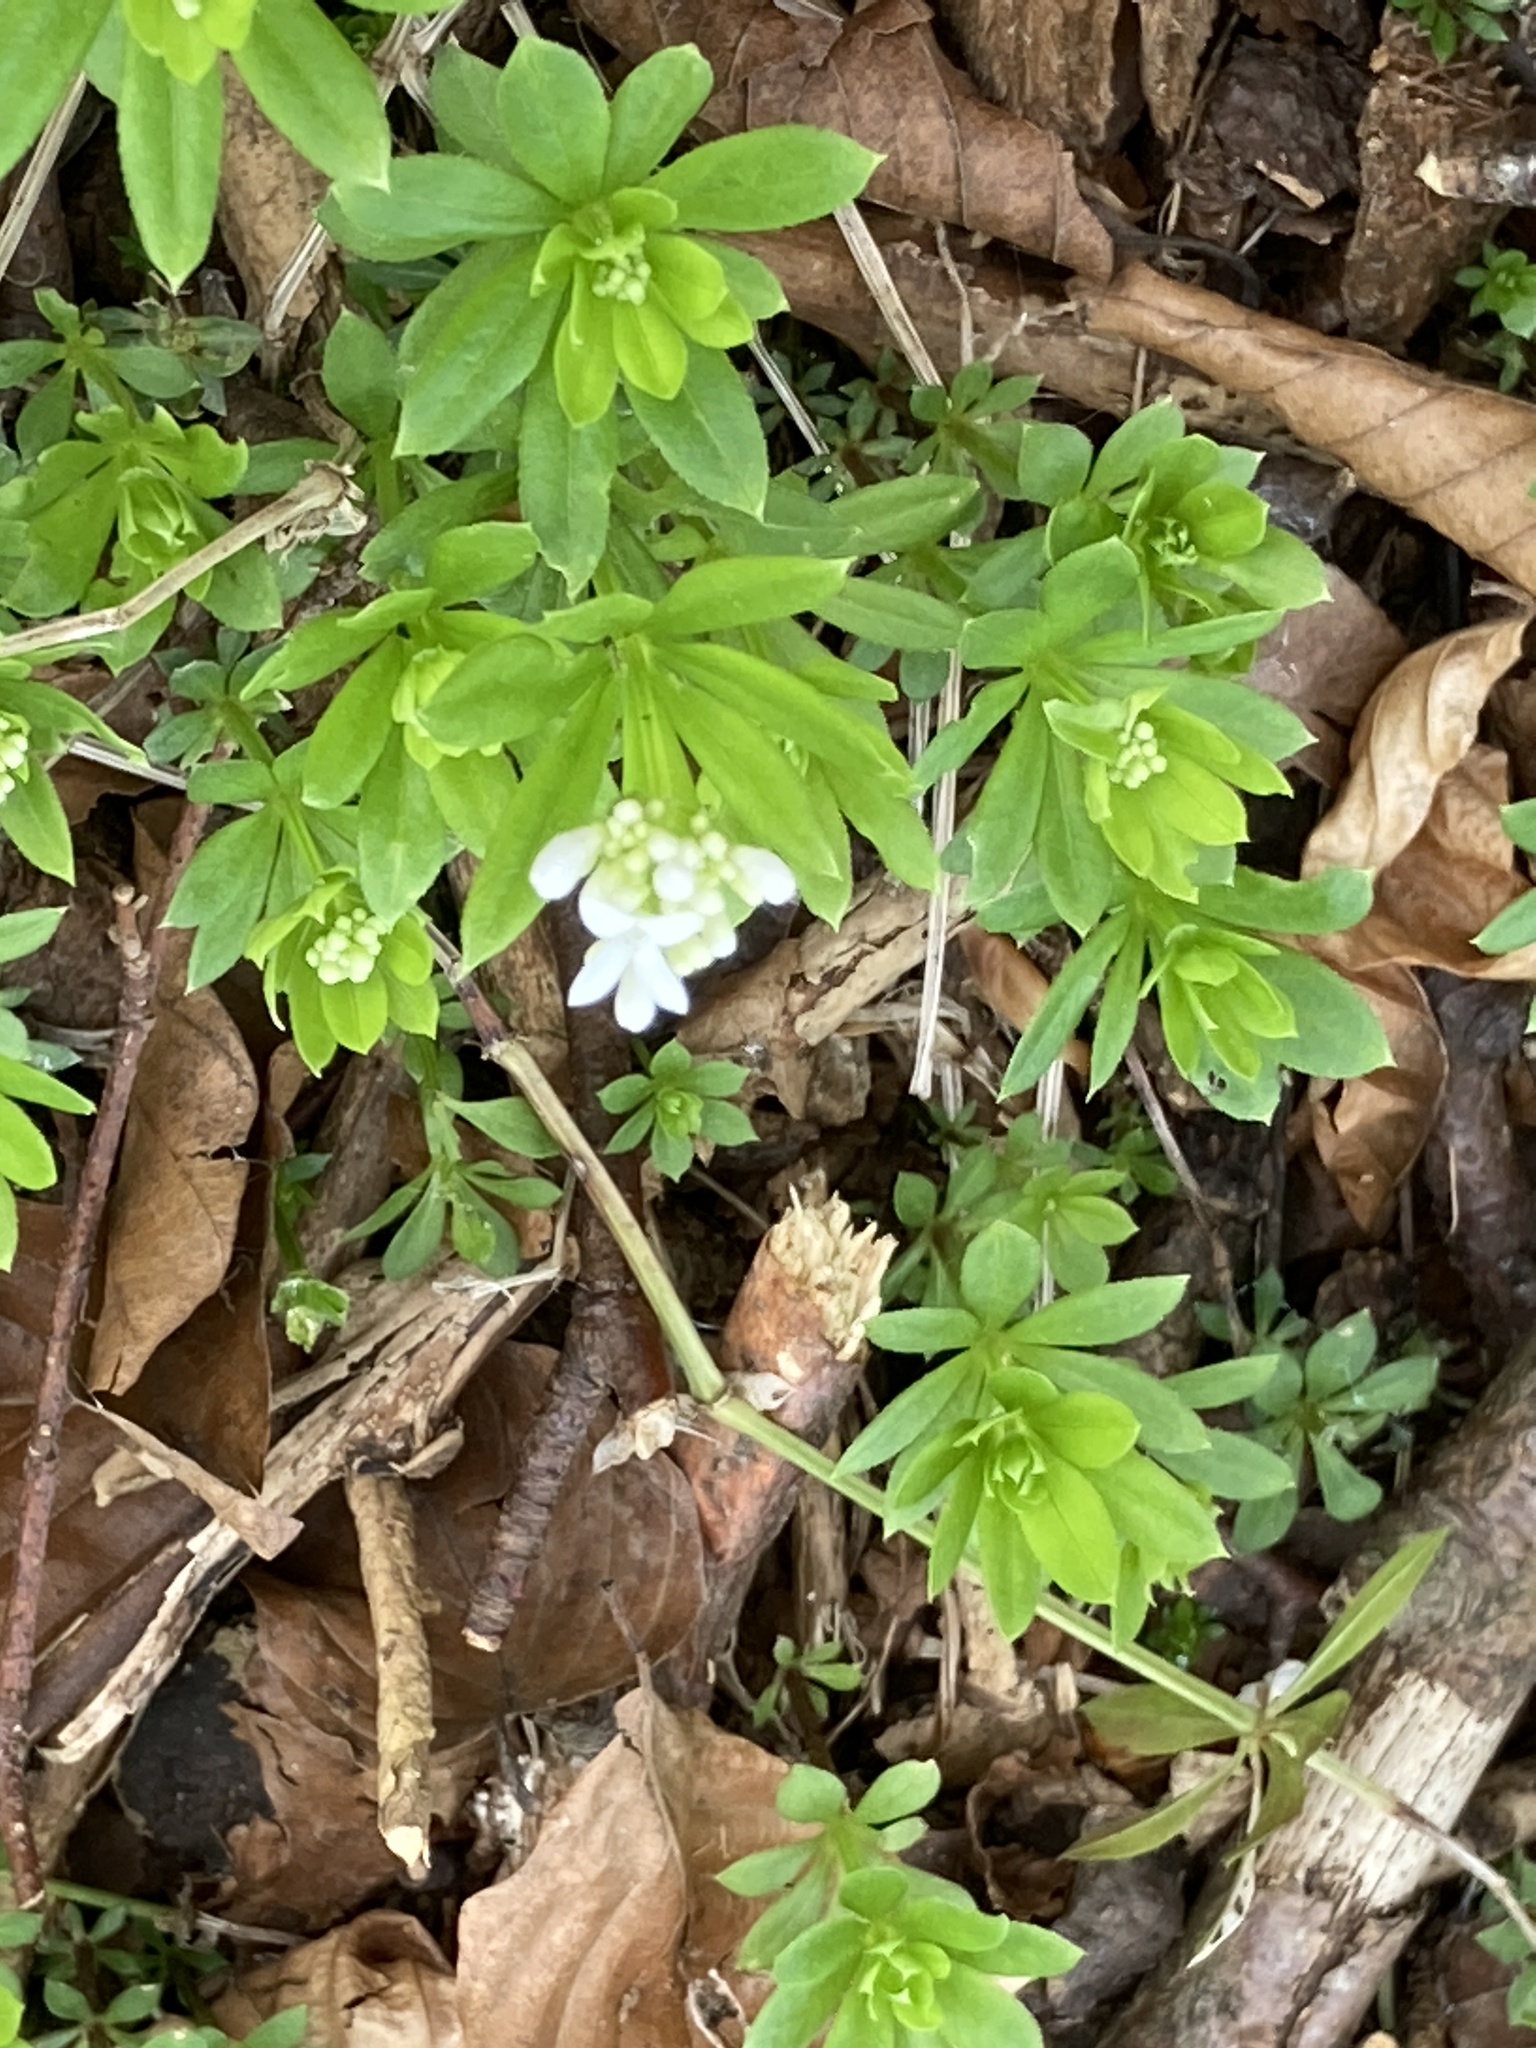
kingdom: Plantae
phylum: Tracheophyta
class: Magnoliopsida
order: Gentianales
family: Rubiaceae
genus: Galium
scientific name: Galium odoratum
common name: Sweet woodruff
